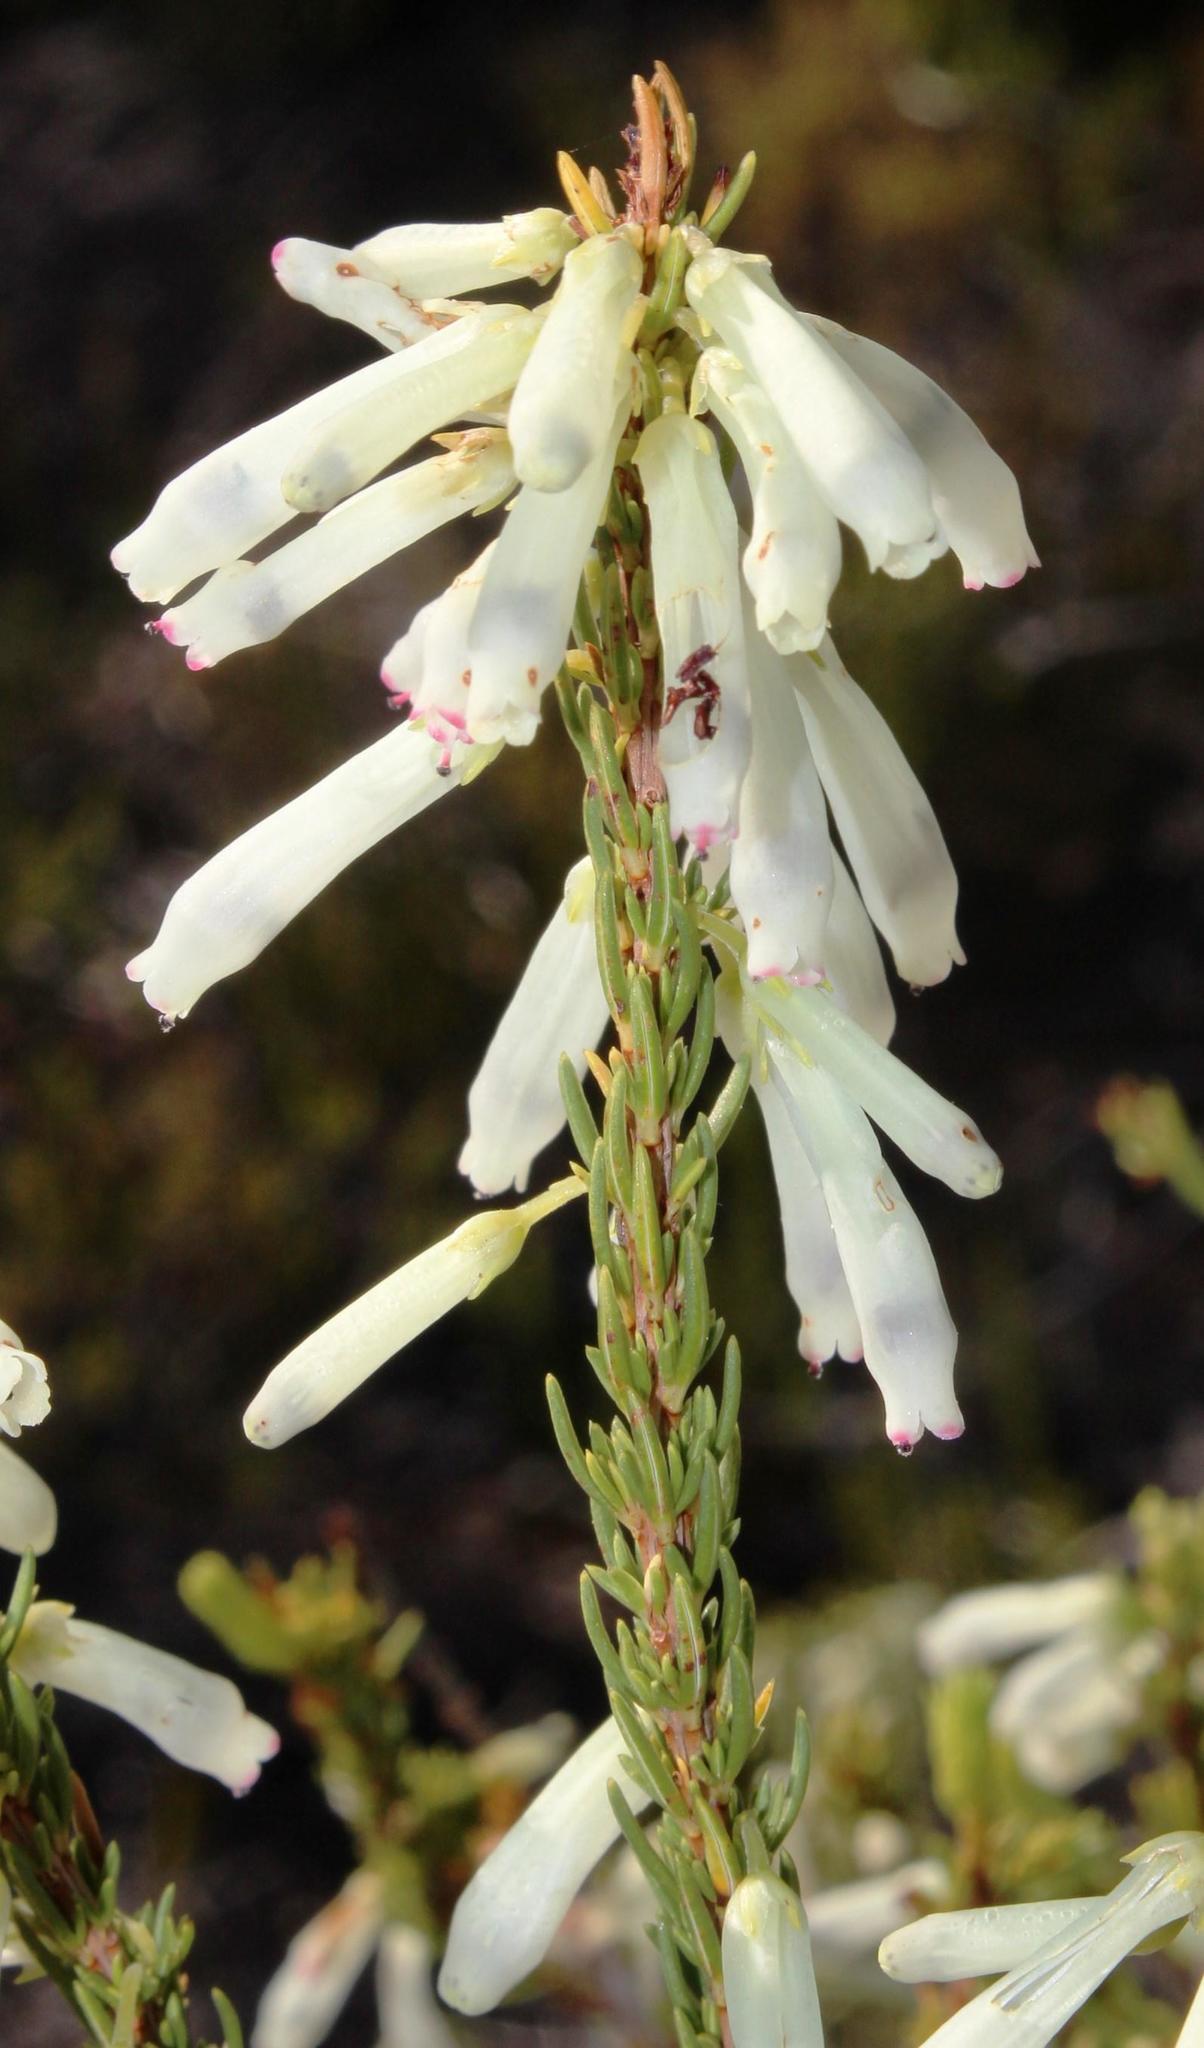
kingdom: Plantae
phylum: Tracheophyta
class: Magnoliopsida
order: Ericales
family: Ericaceae
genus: Erica
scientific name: Erica mammosa
